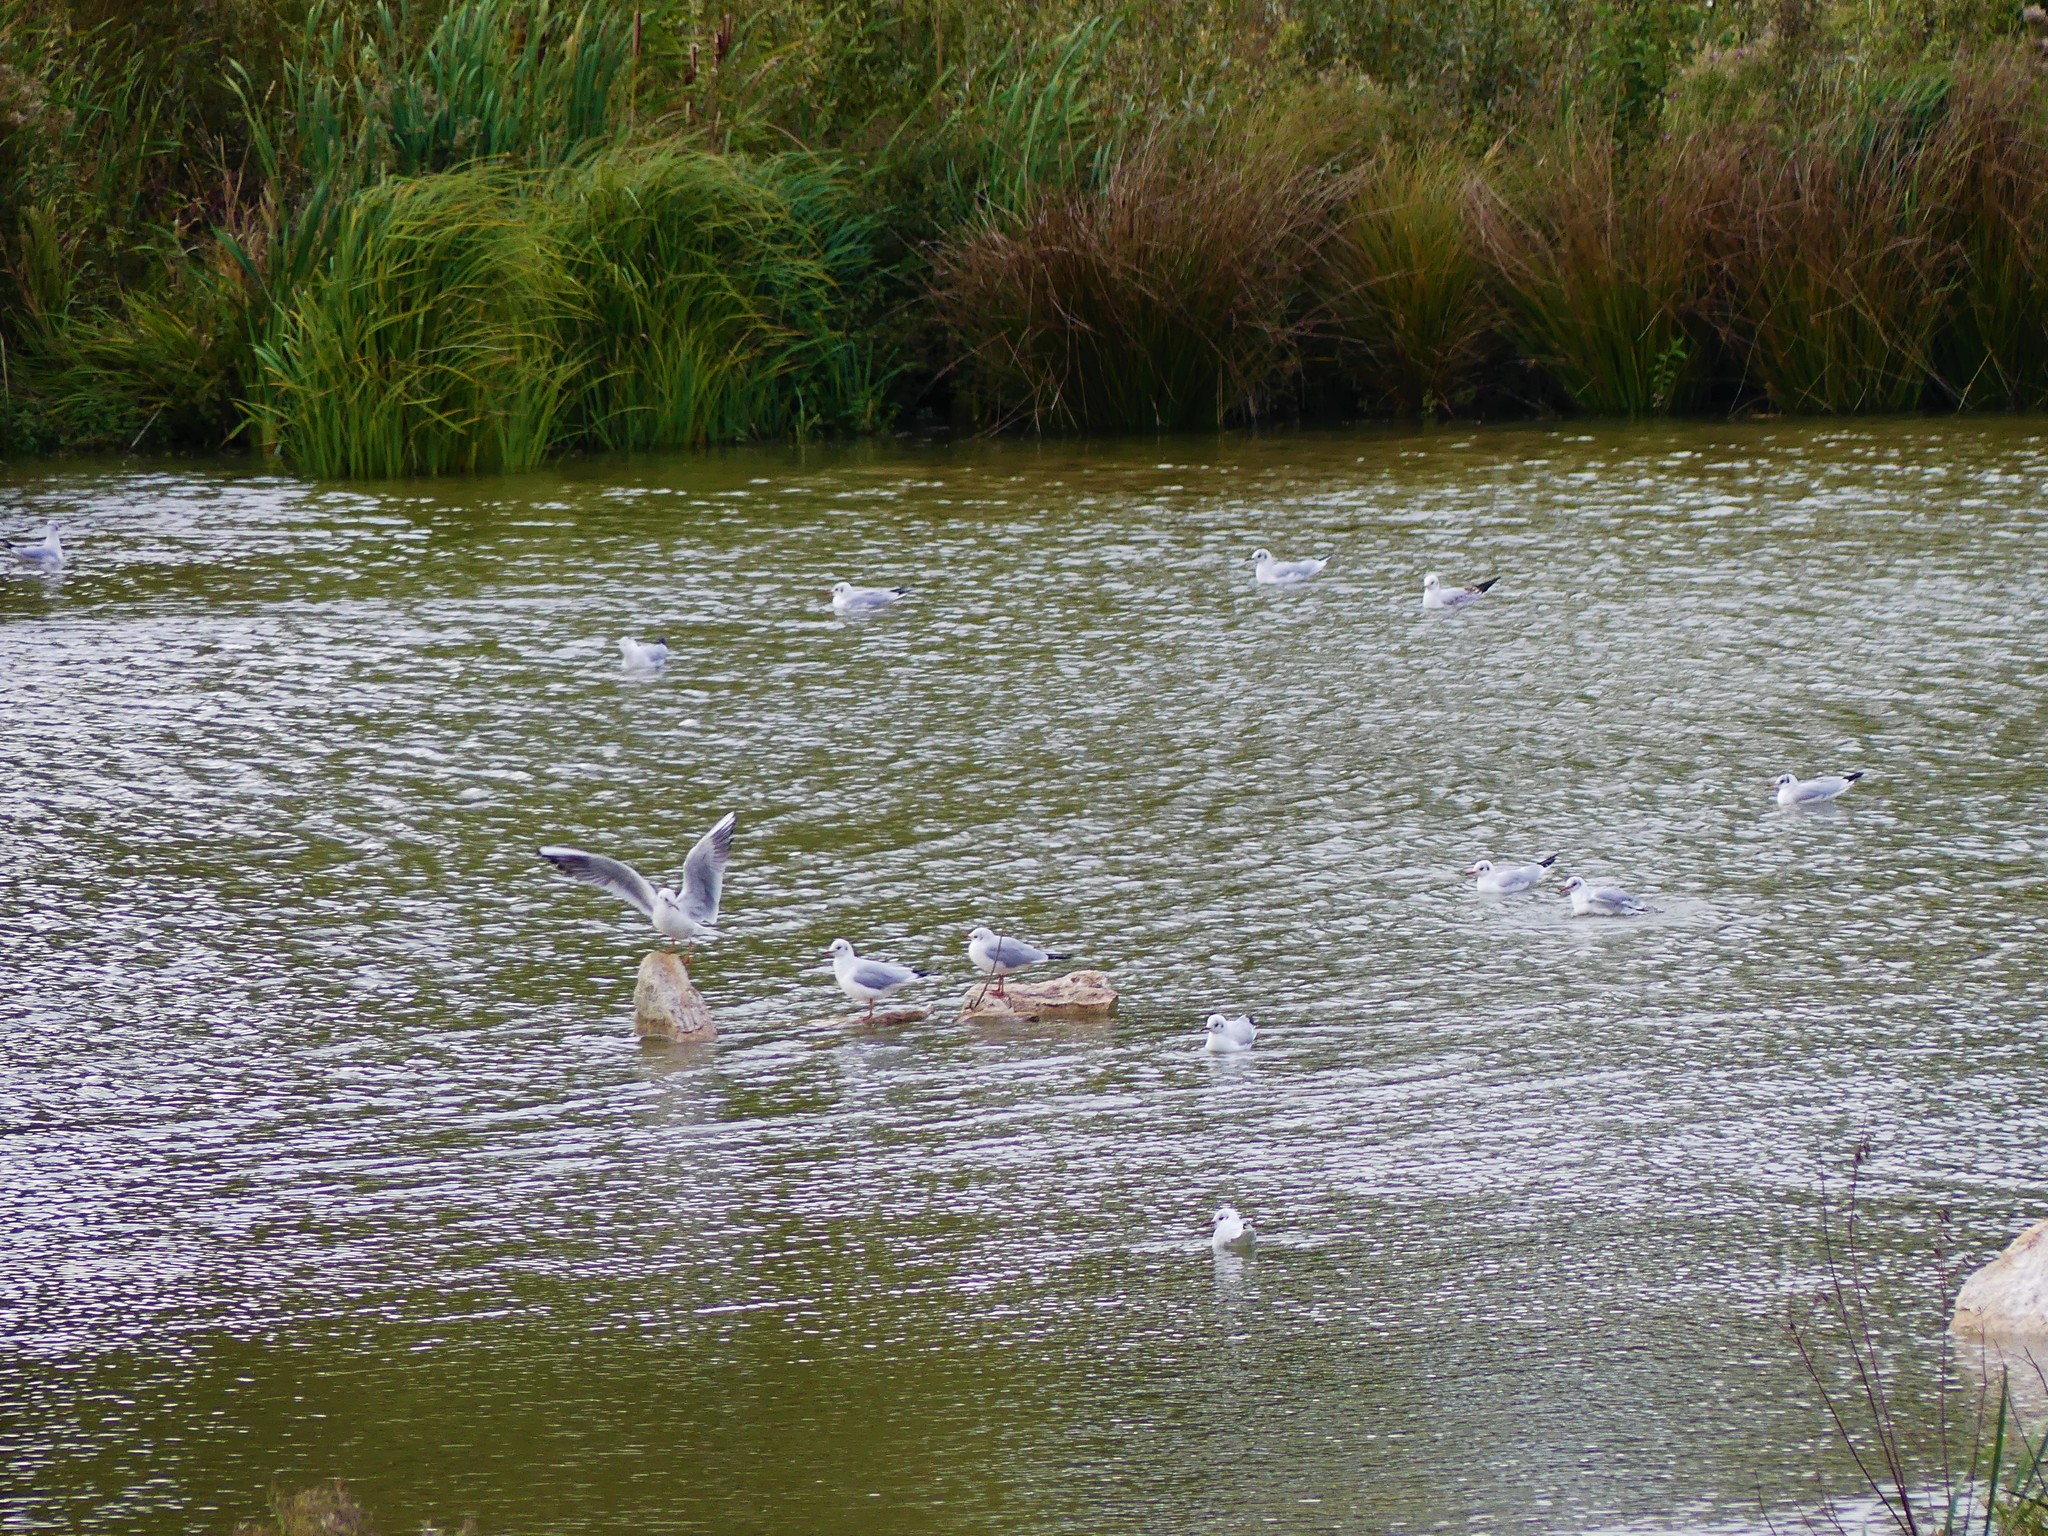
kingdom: Animalia
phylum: Chordata
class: Aves
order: Charadriiformes
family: Laridae
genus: Chroicocephalus
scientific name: Chroicocephalus ridibundus
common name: Black-headed gull
